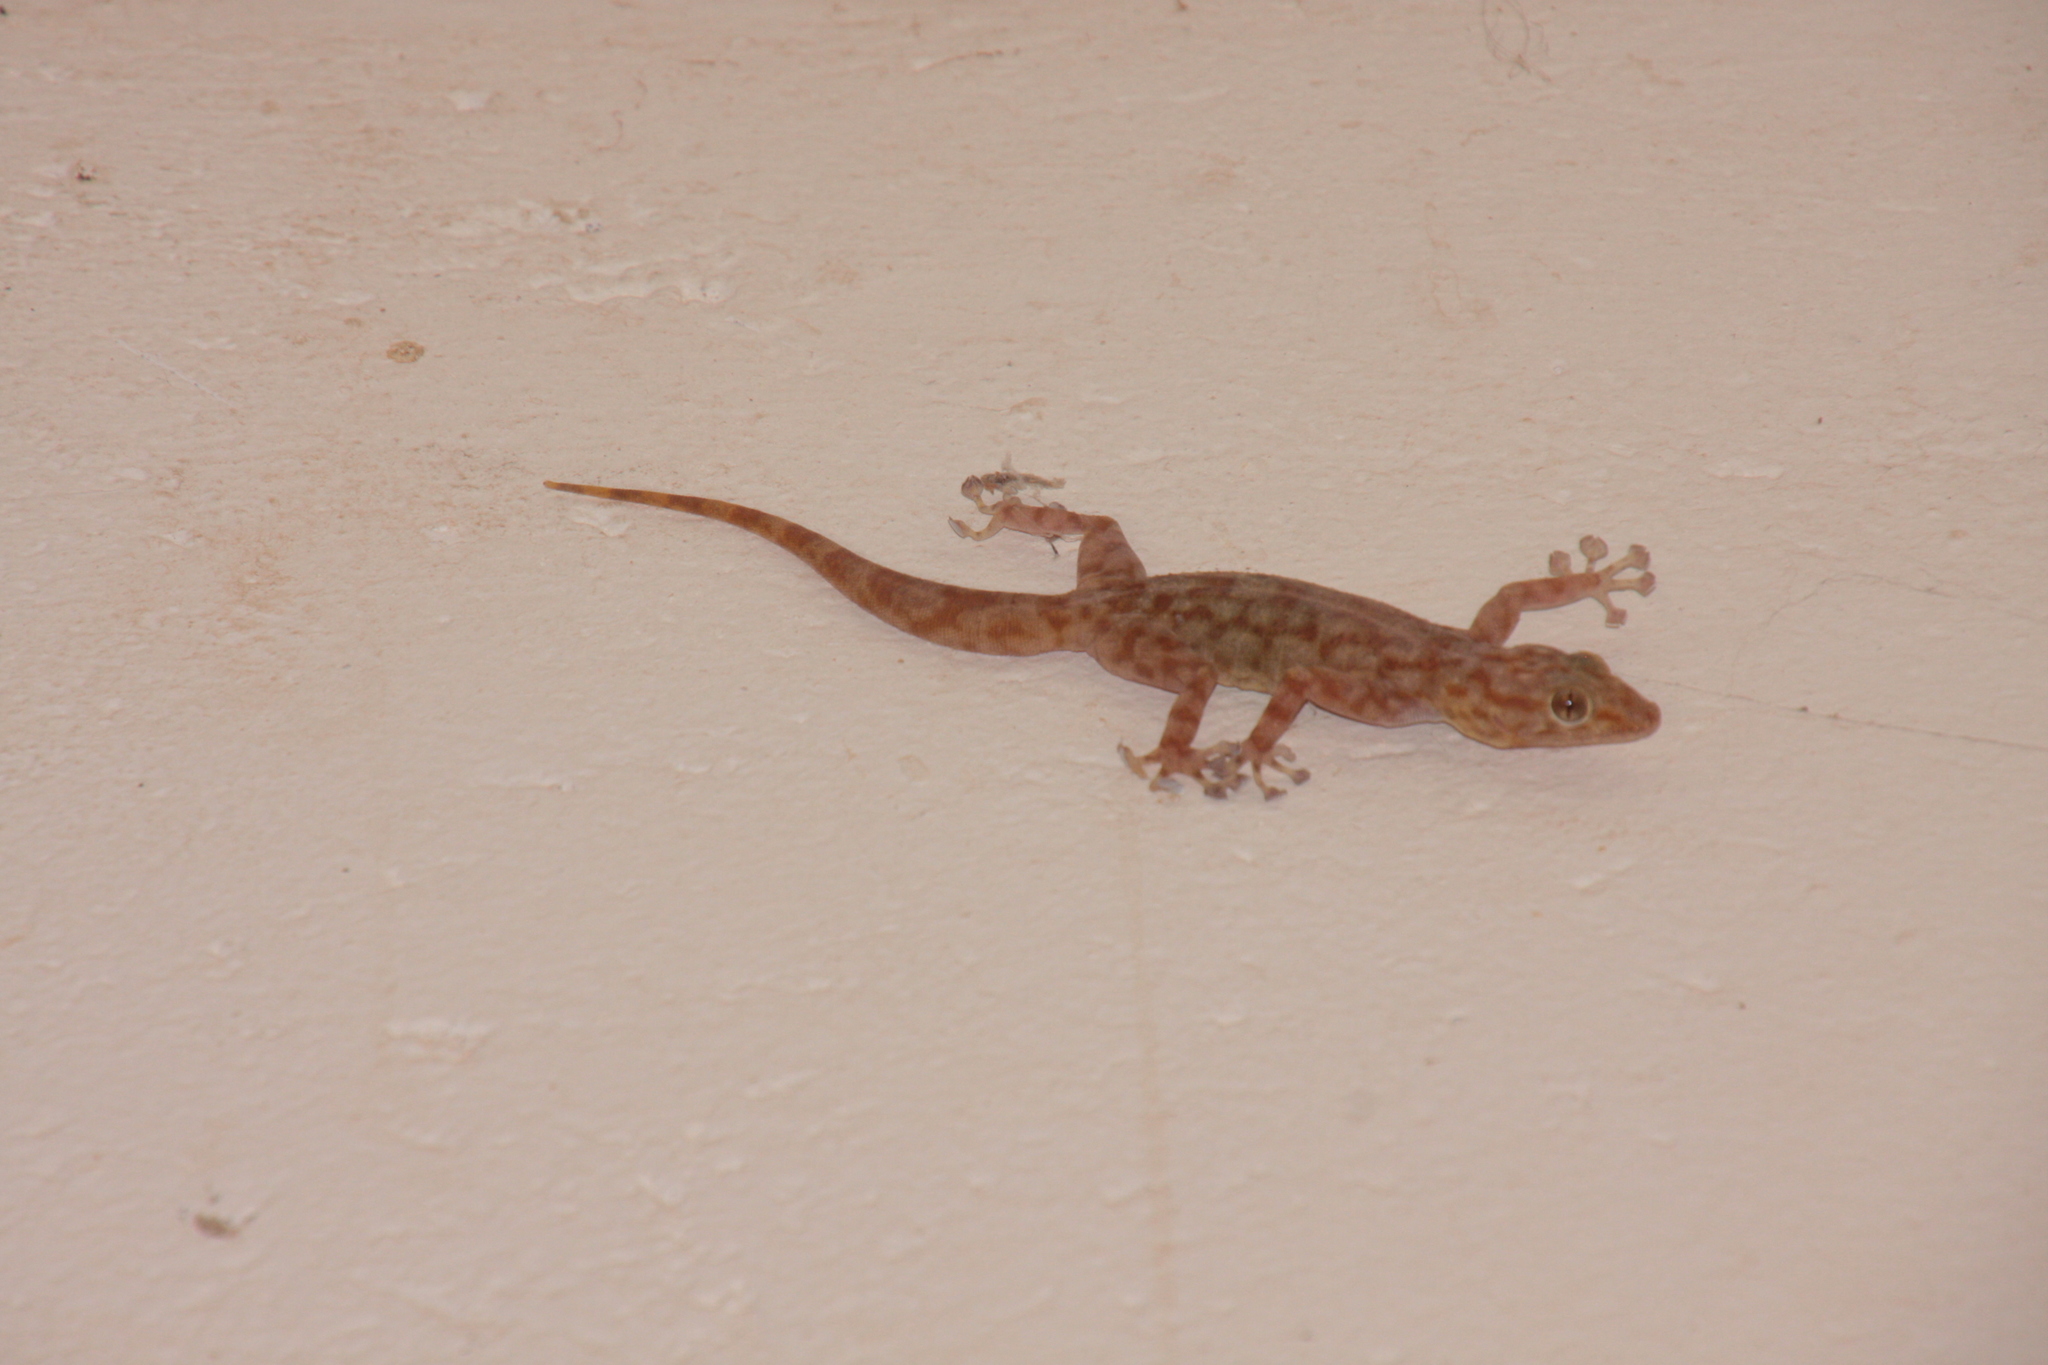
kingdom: Animalia
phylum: Chordata
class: Squamata
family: Phyllodactylidae
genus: Ptyodactylus
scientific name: Ptyodactylus ragazzii
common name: Ragazzi’s fan-footed gecko
